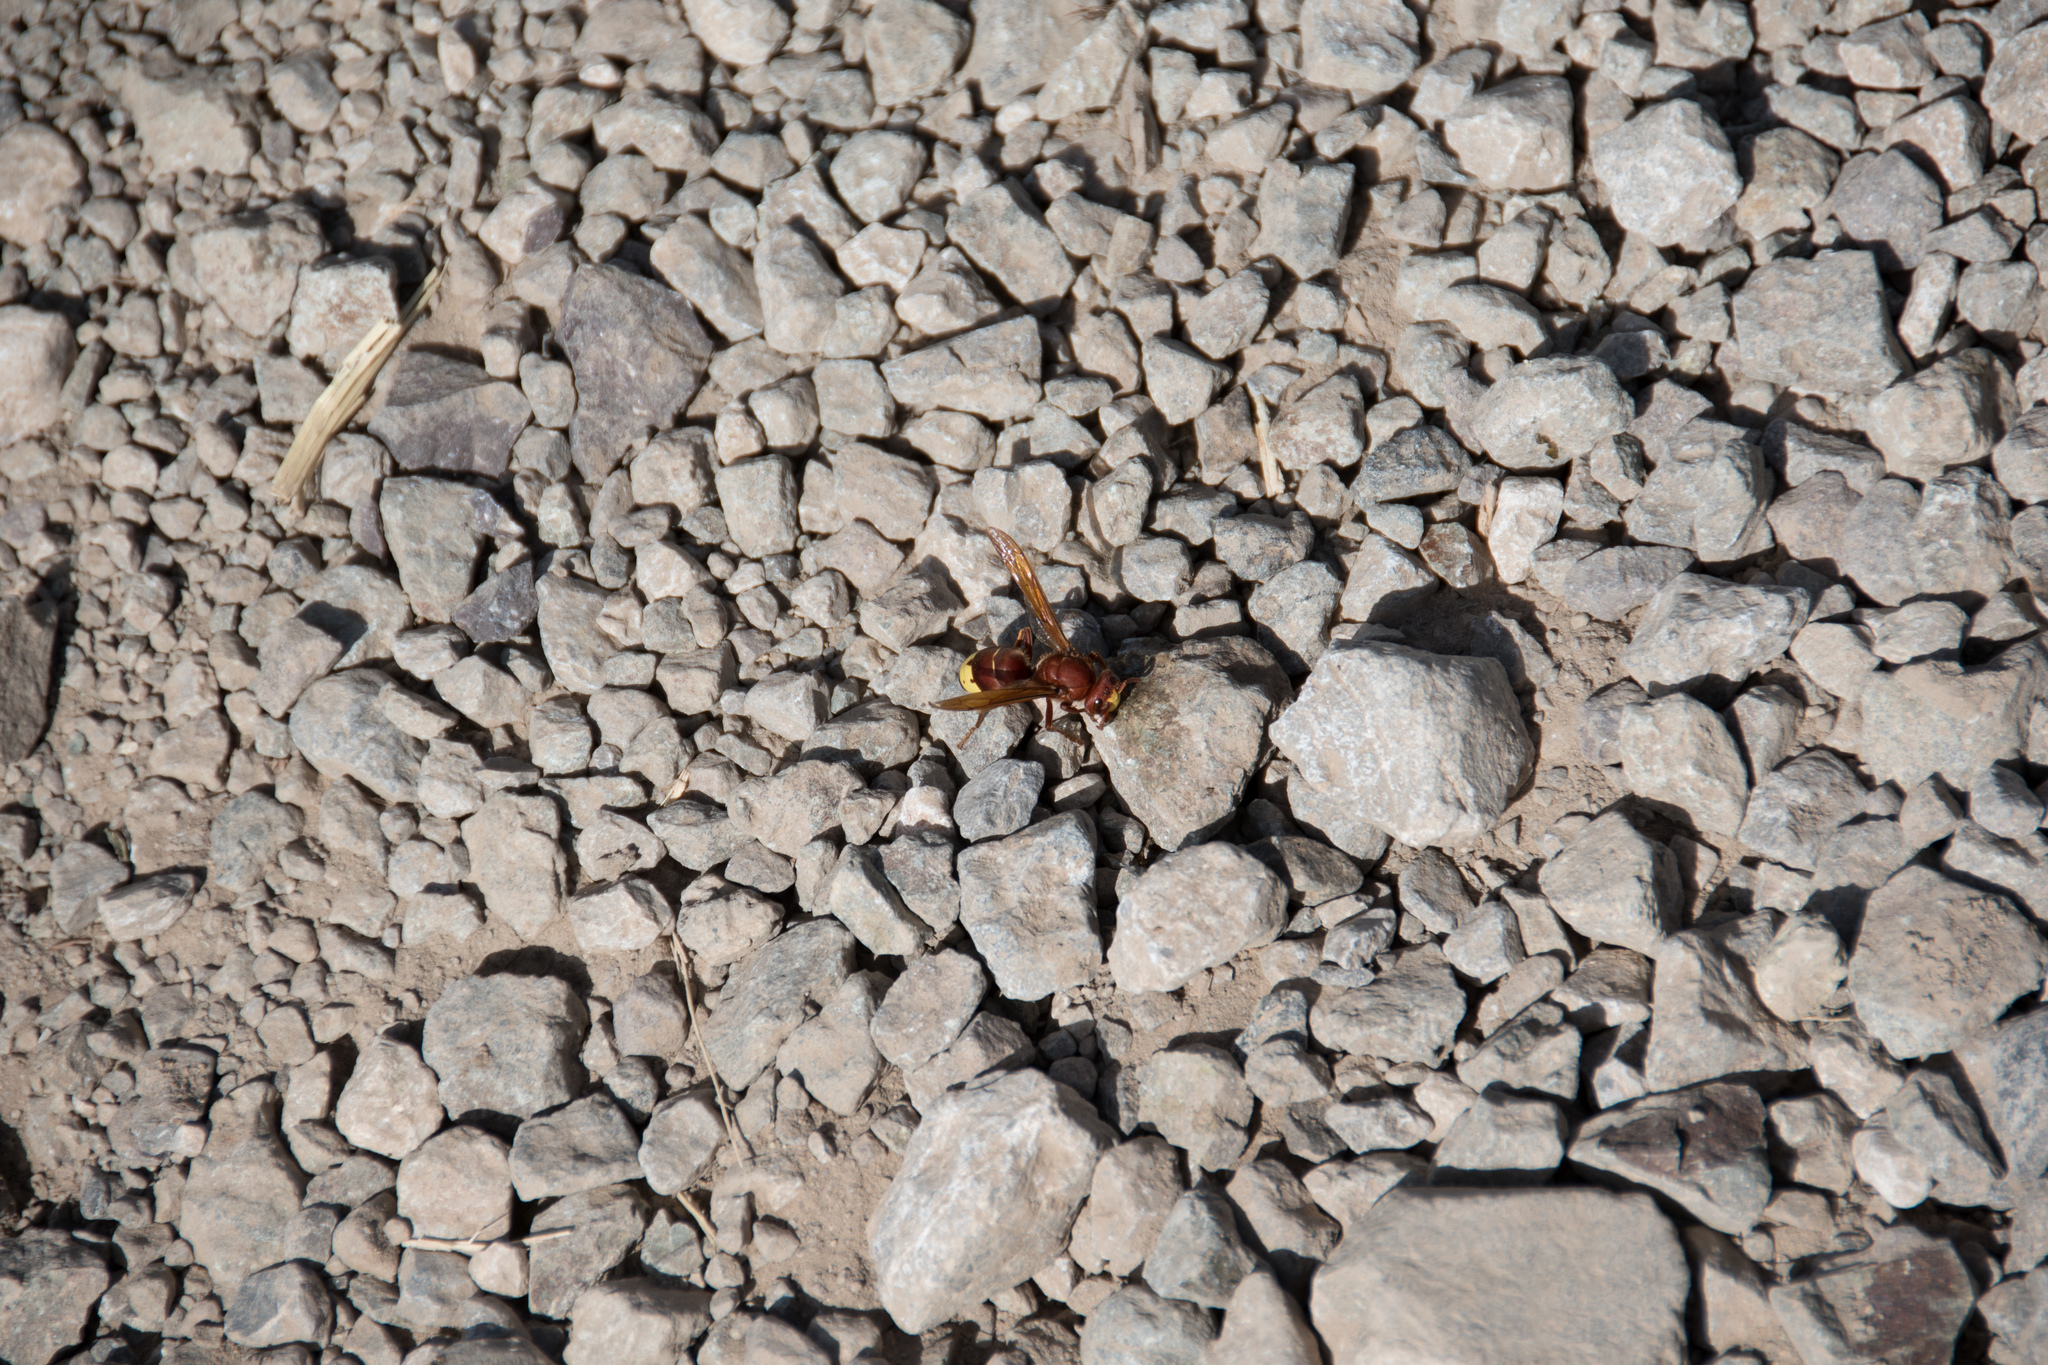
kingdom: Animalia
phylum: Arthropoda
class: Insecta
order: Hymenoptera
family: Vespidae
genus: Vespa
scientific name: Vespa orientalis
